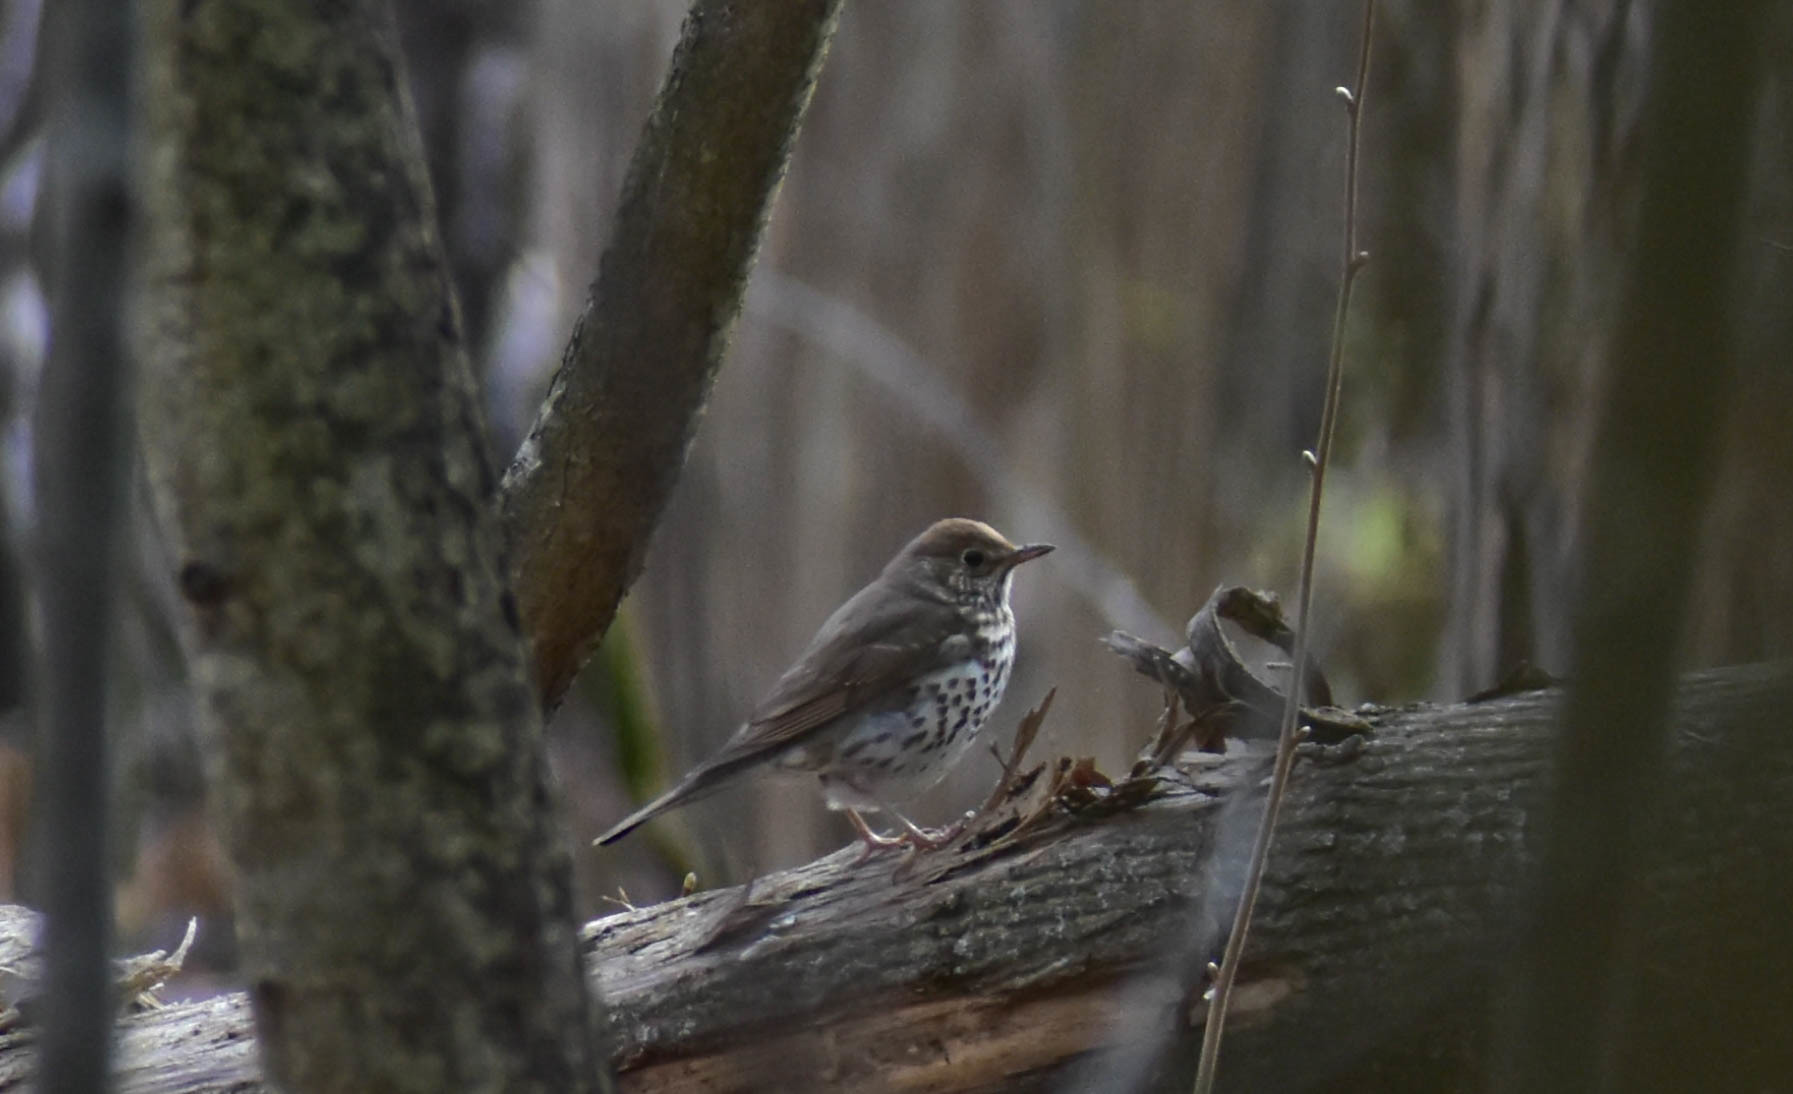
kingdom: Animalia
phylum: Chordata
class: Aves
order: Passeriformes
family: Turdidae
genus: Turdus
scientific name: Turdus philomelos
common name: Song thrush
